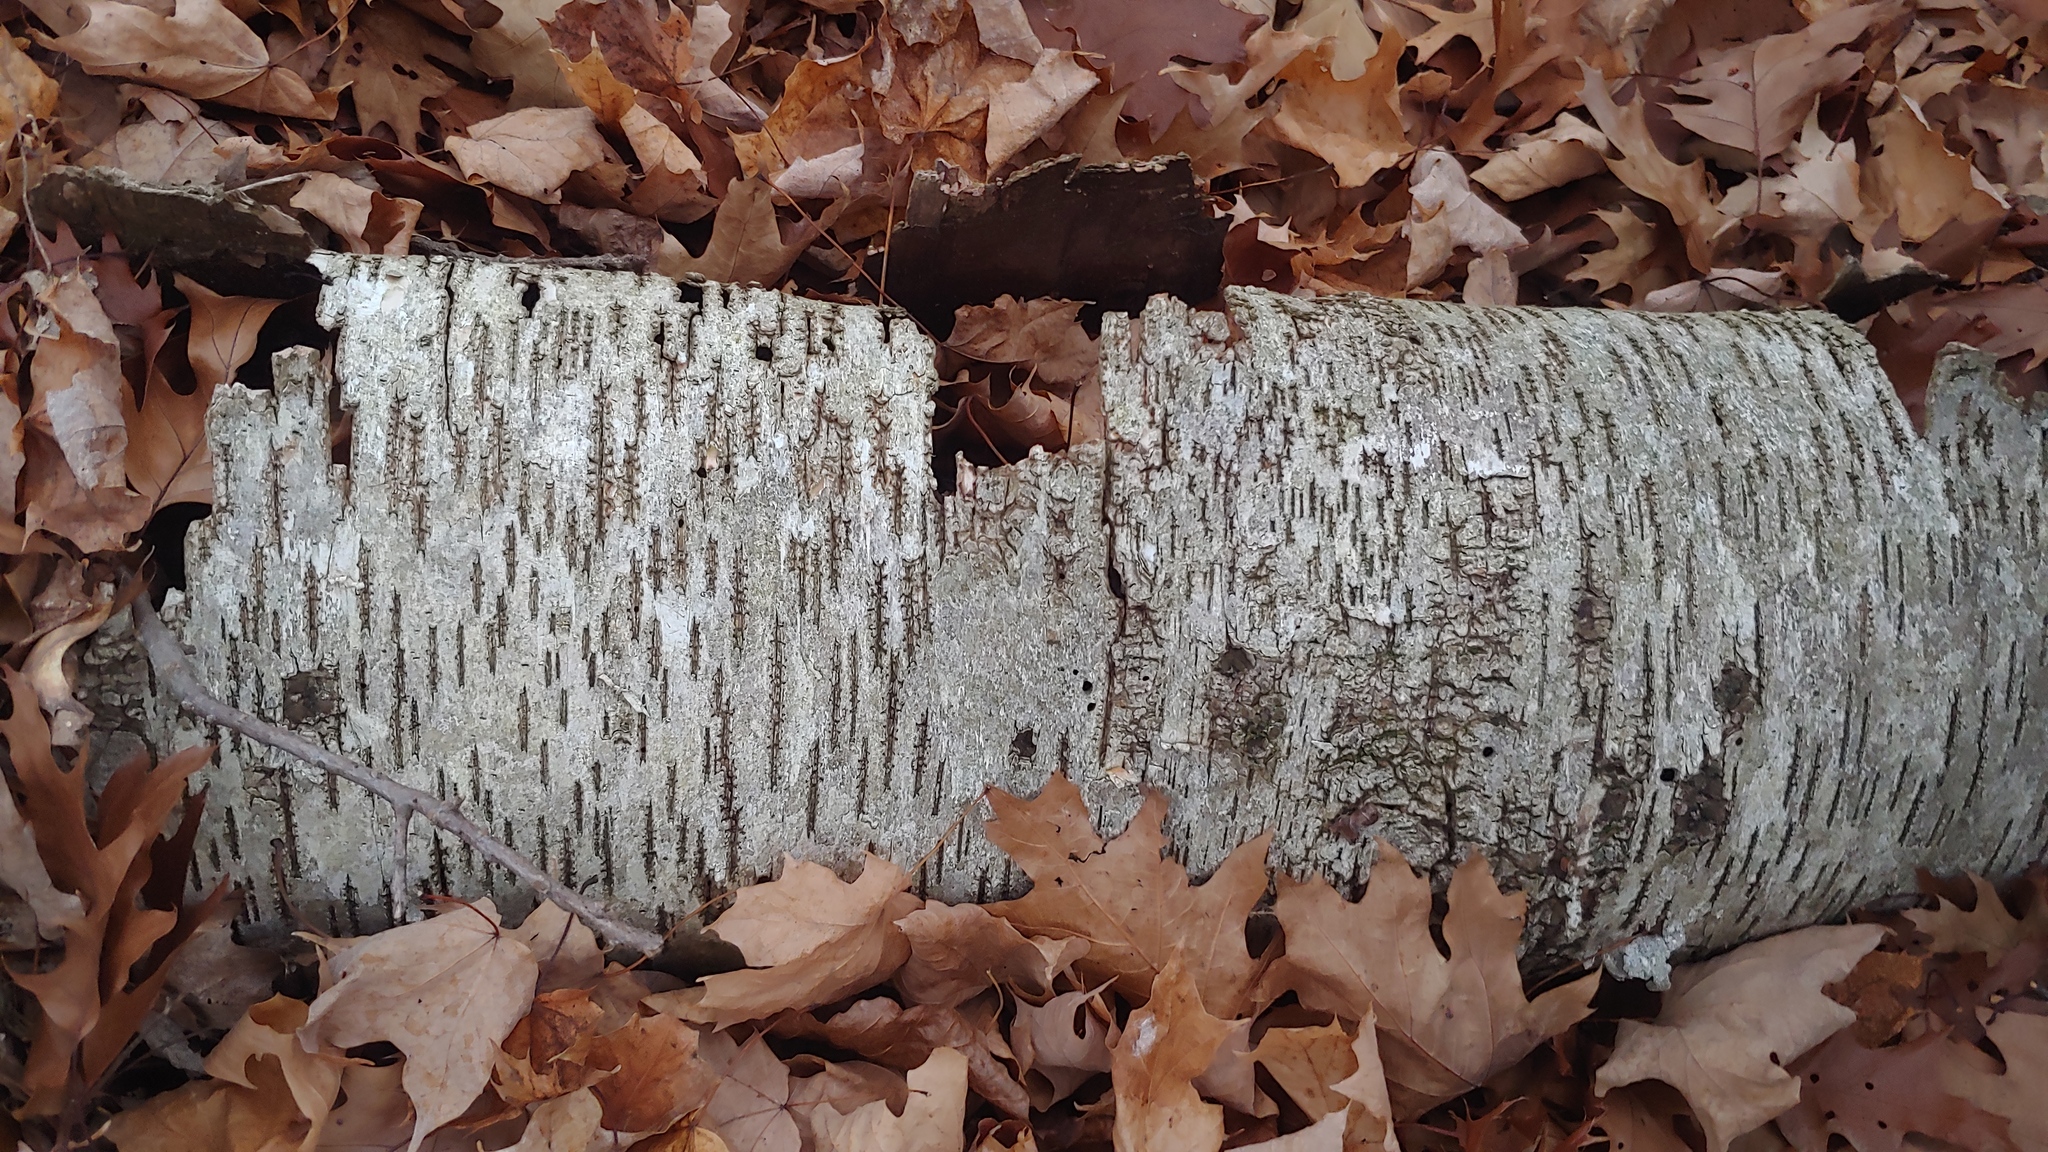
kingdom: Plantae
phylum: Tracheophyta
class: Magnoliopsida
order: Fagales
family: Betulaceae
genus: Betula
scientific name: Betula papyrifera
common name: Paper birch
